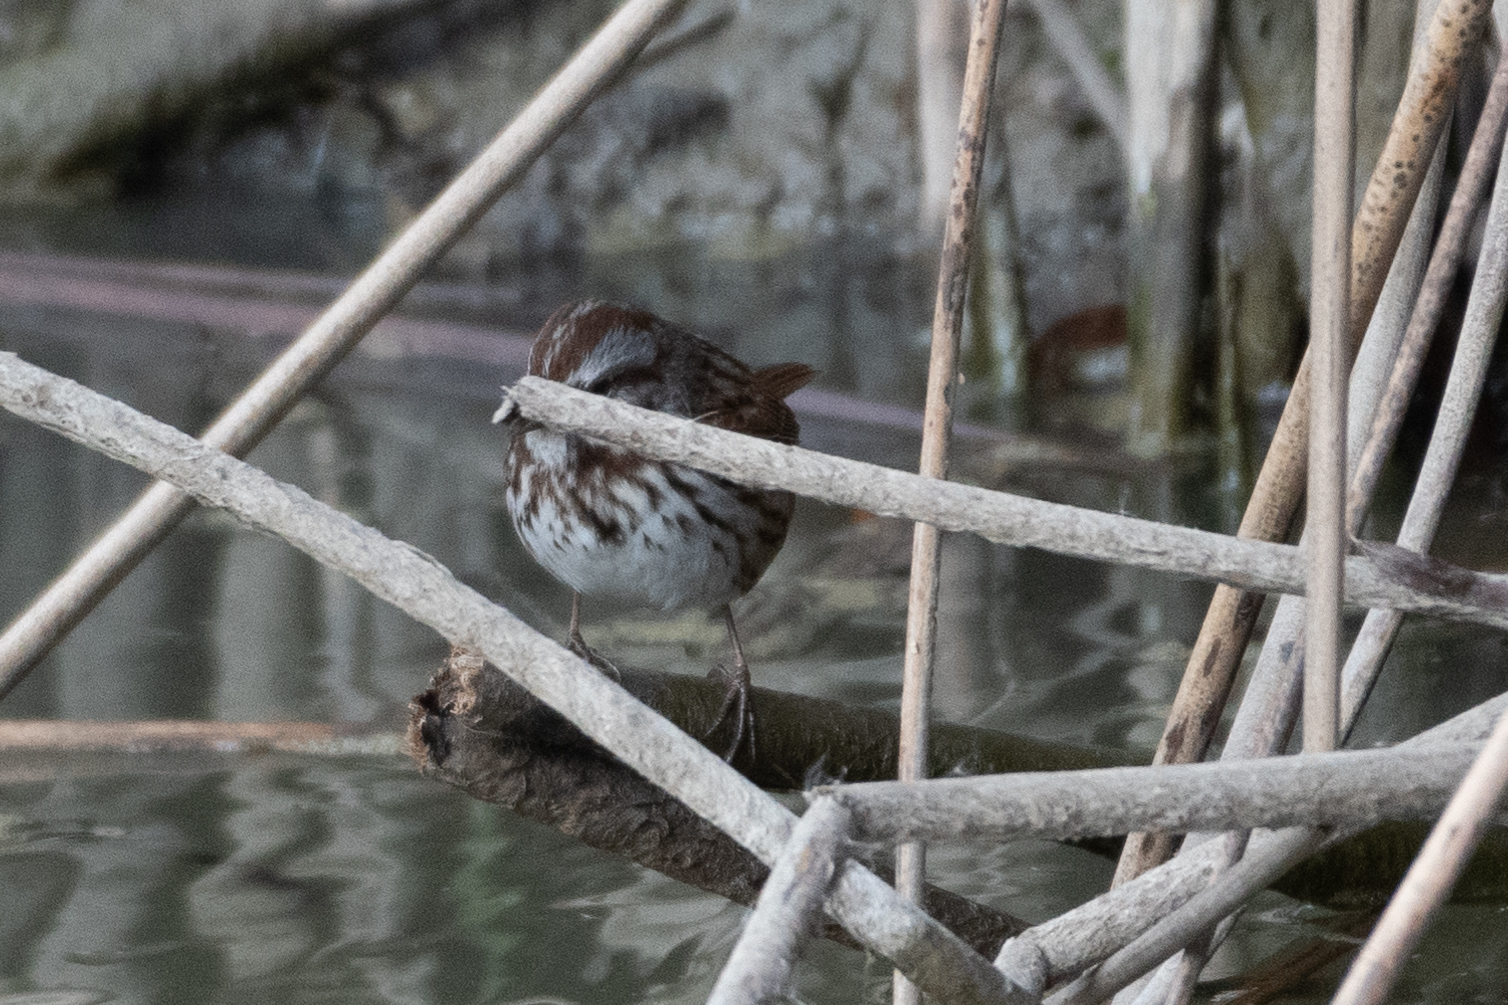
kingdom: Animalia
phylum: Chordata
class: Aves
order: Passeriformes
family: Passerellidae
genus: Melospiza
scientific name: Melospiza melodia
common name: Song sparrow
